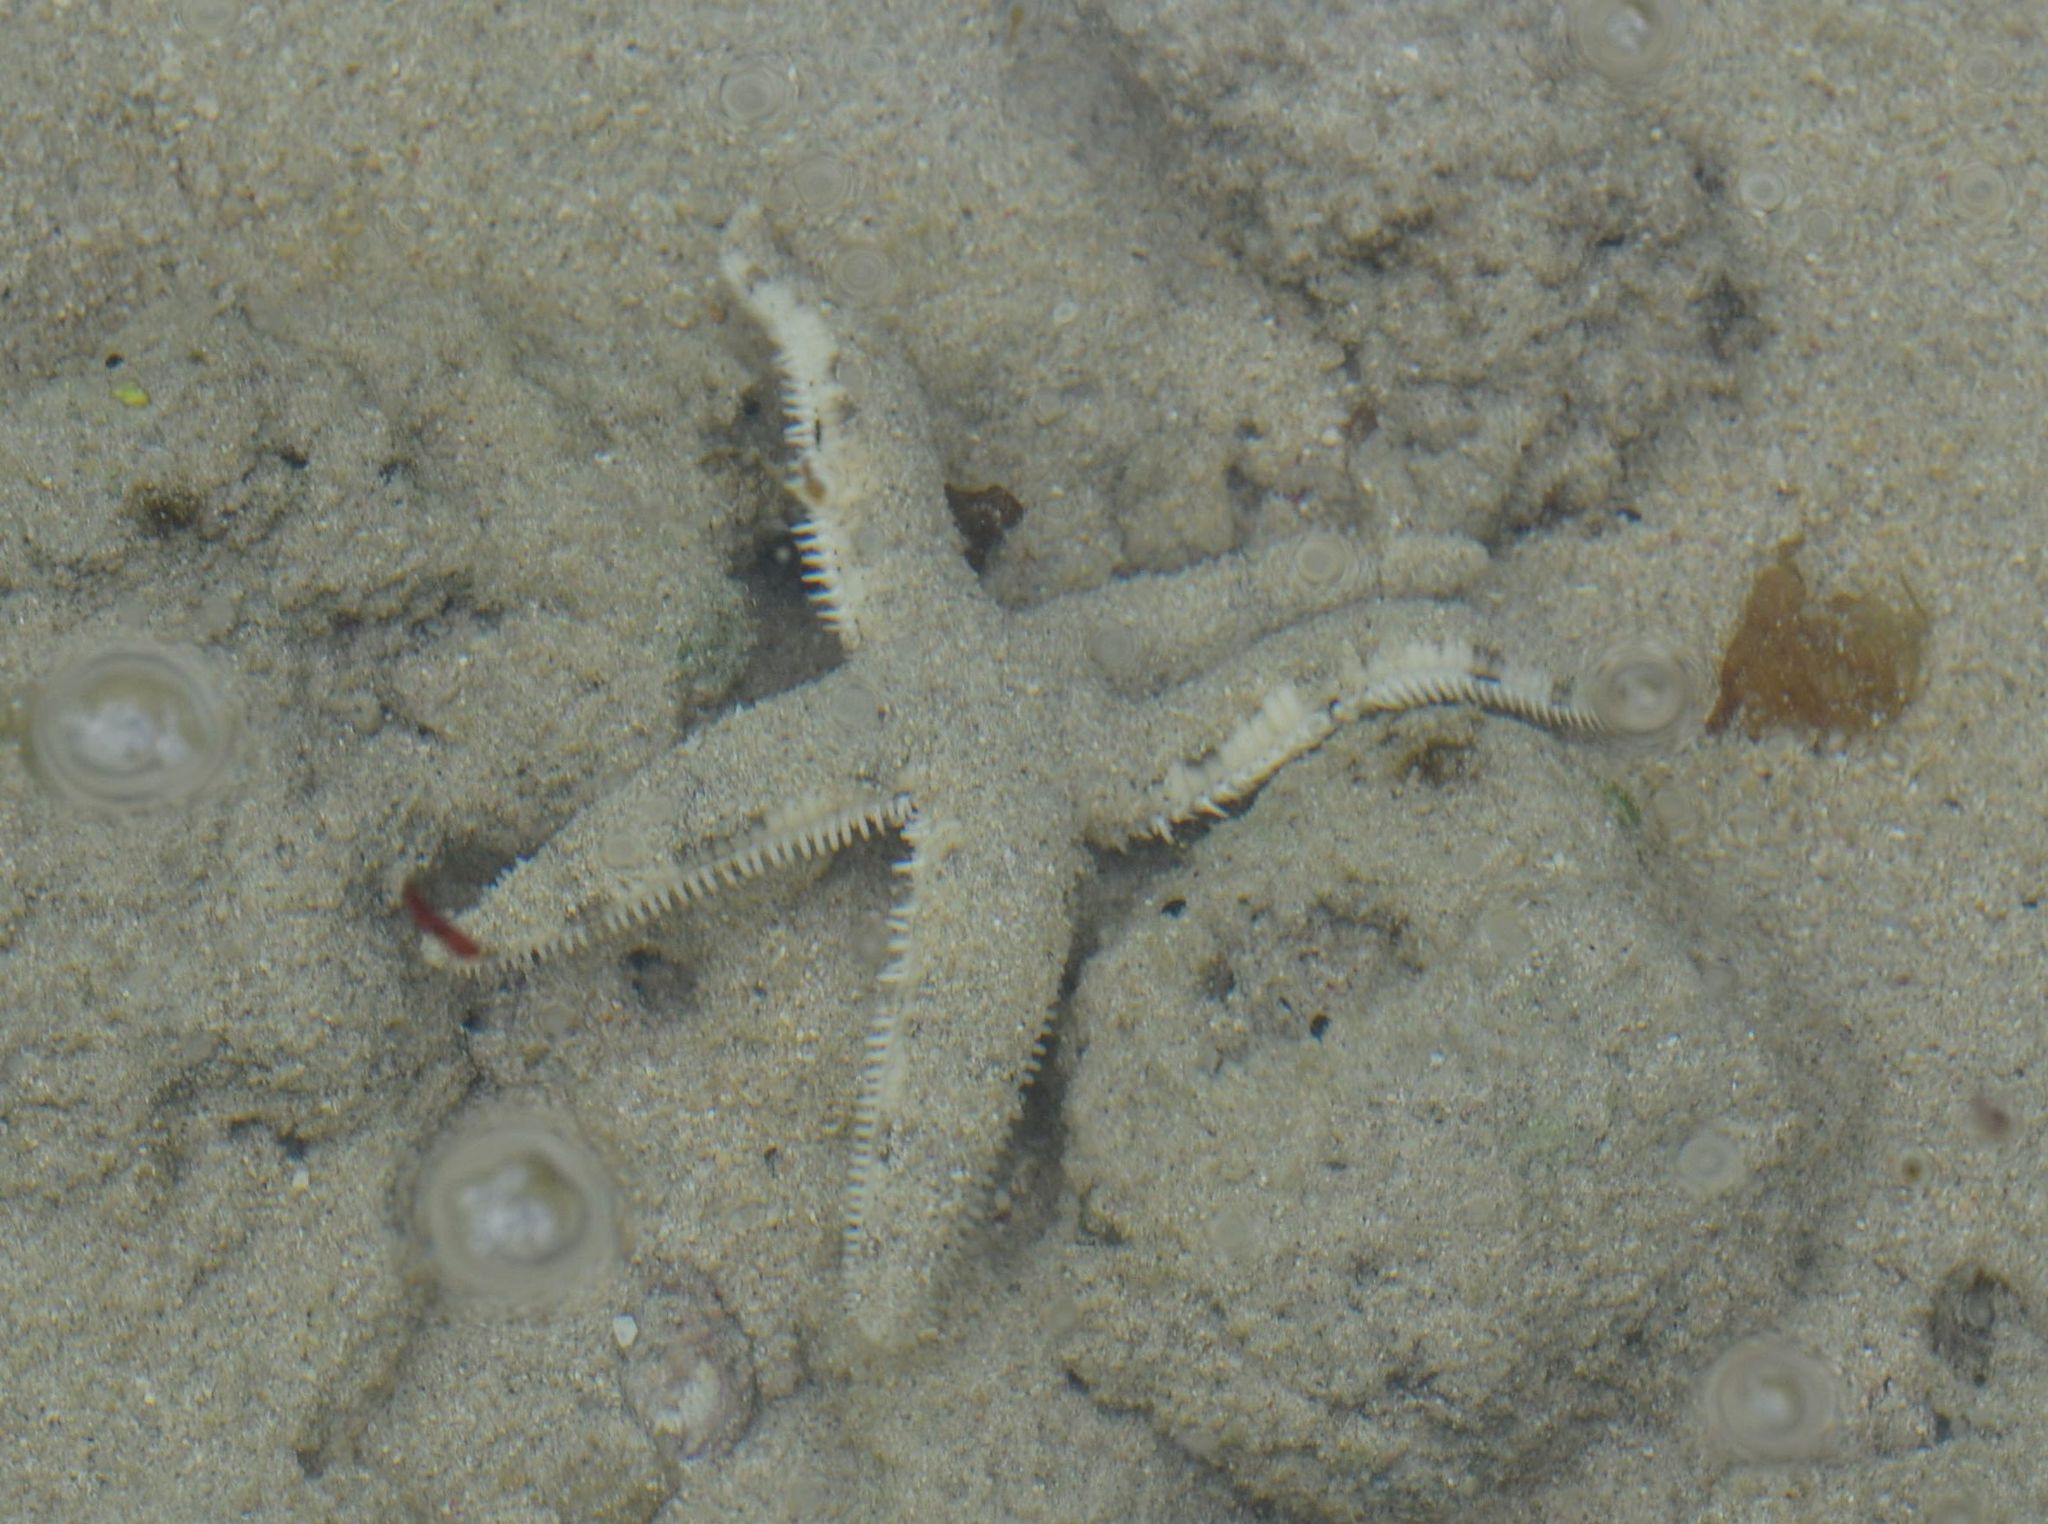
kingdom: Animalia
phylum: Echinodermata
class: Asteroidea
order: Valvatida
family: Archasteridae
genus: Archaster
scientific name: Archaster typicus
